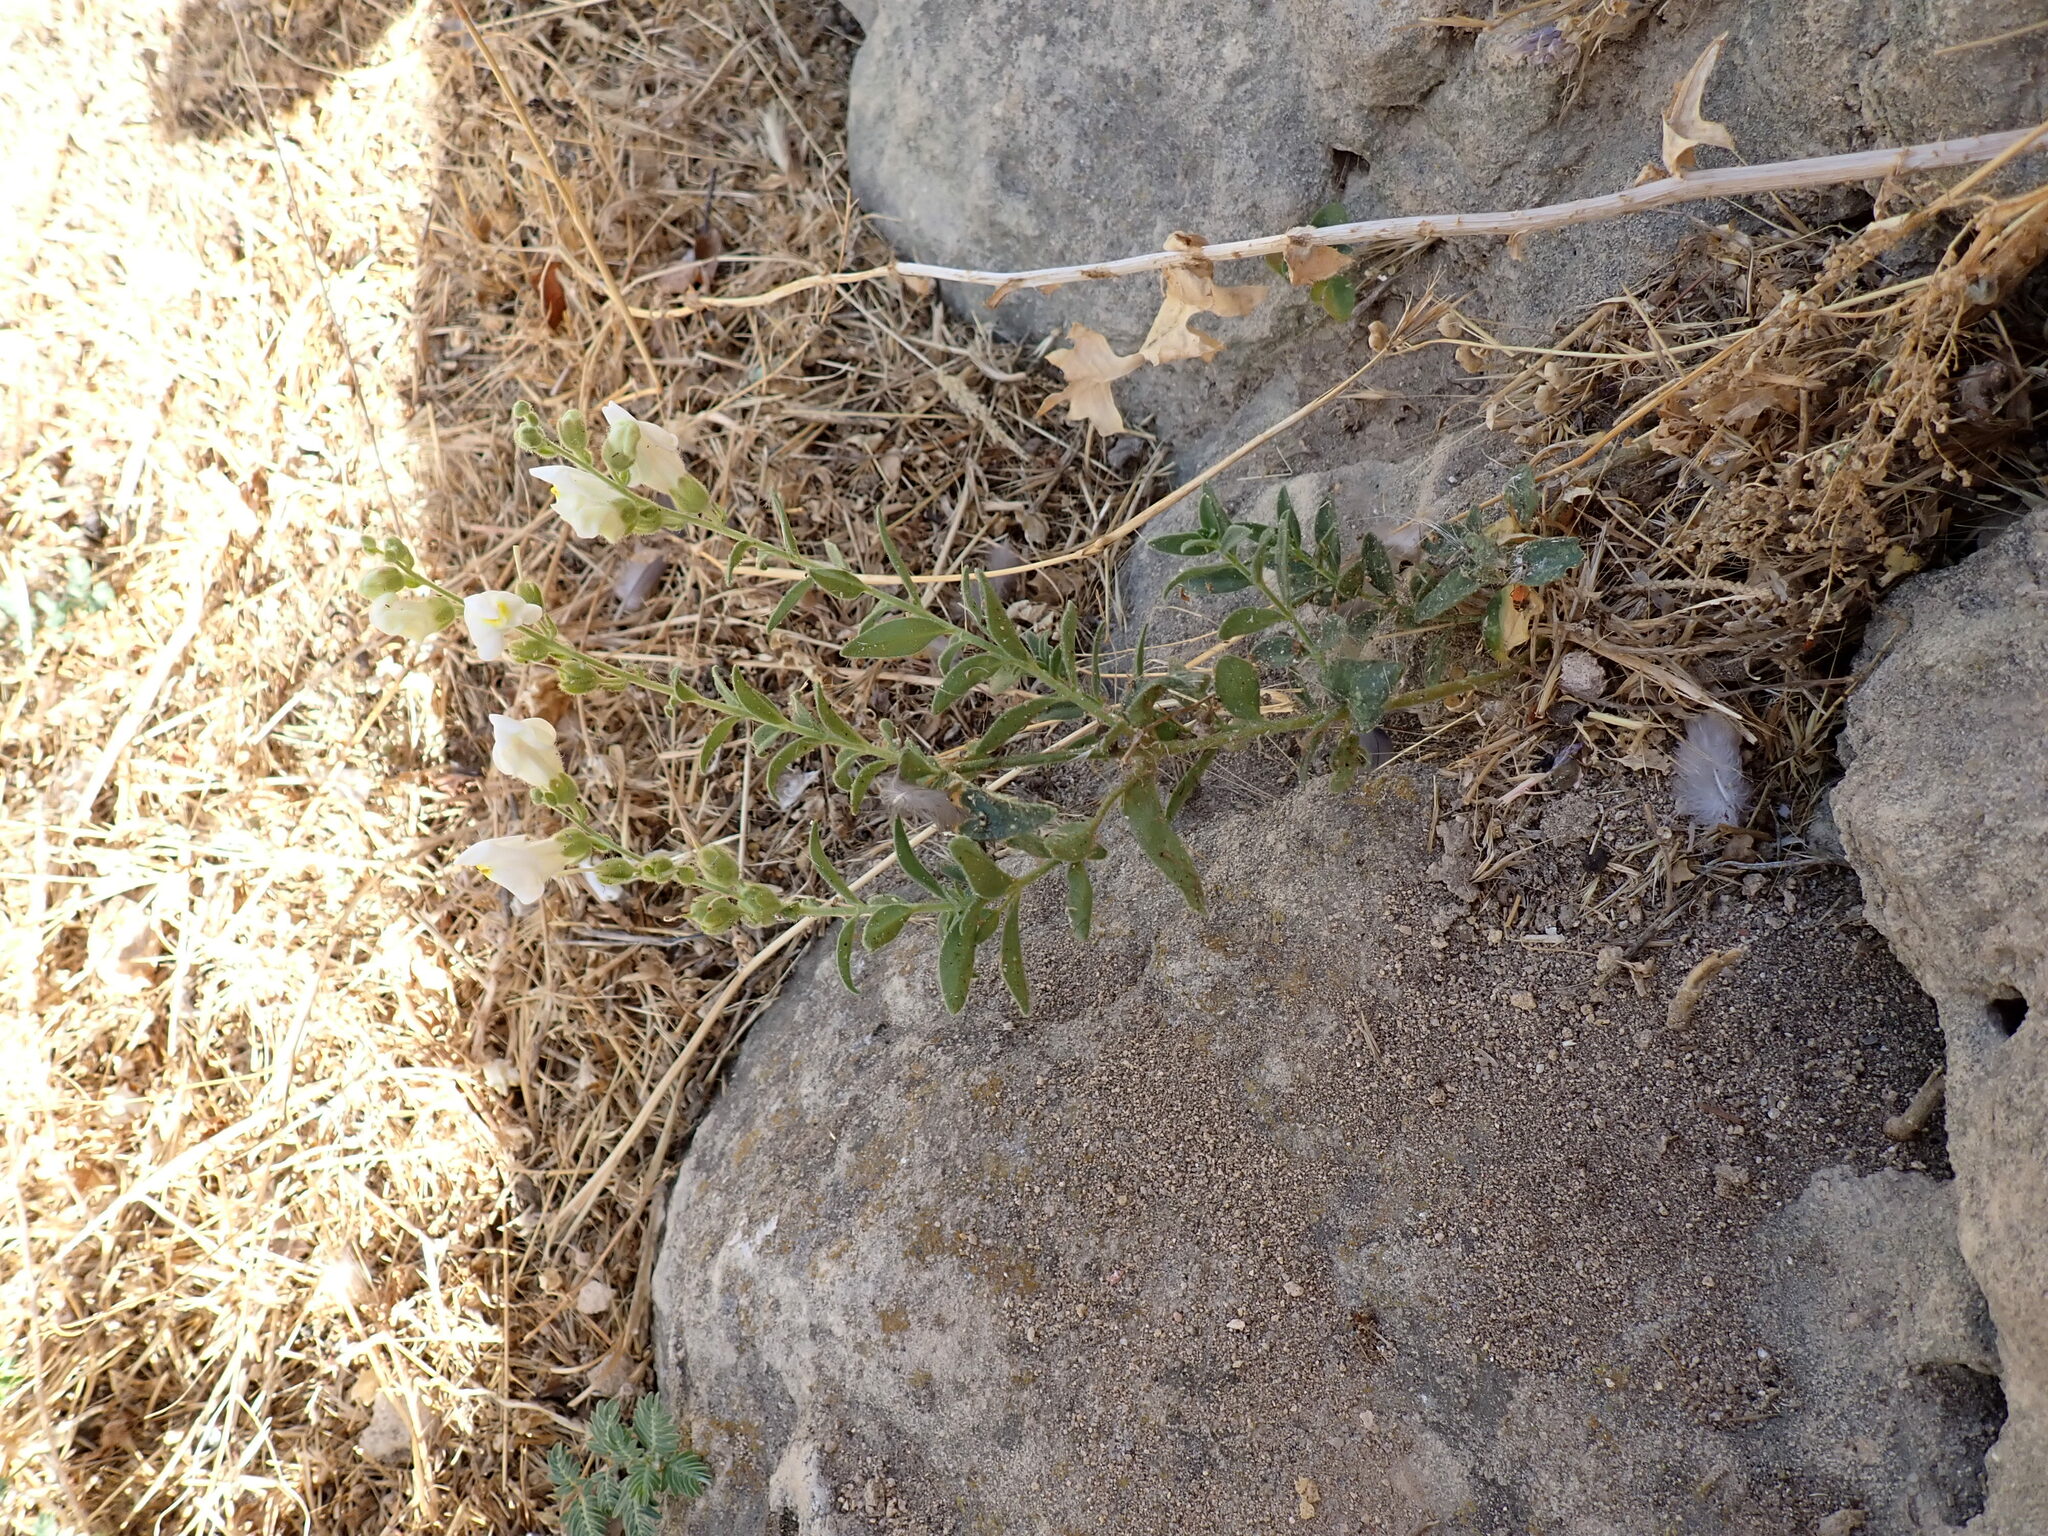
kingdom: Plantae
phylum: Tracheophyta
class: Magnoliopsida
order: Lamiales
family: Plantaginaceae
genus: Antirrhinum
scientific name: Antirrhinum graniticum
